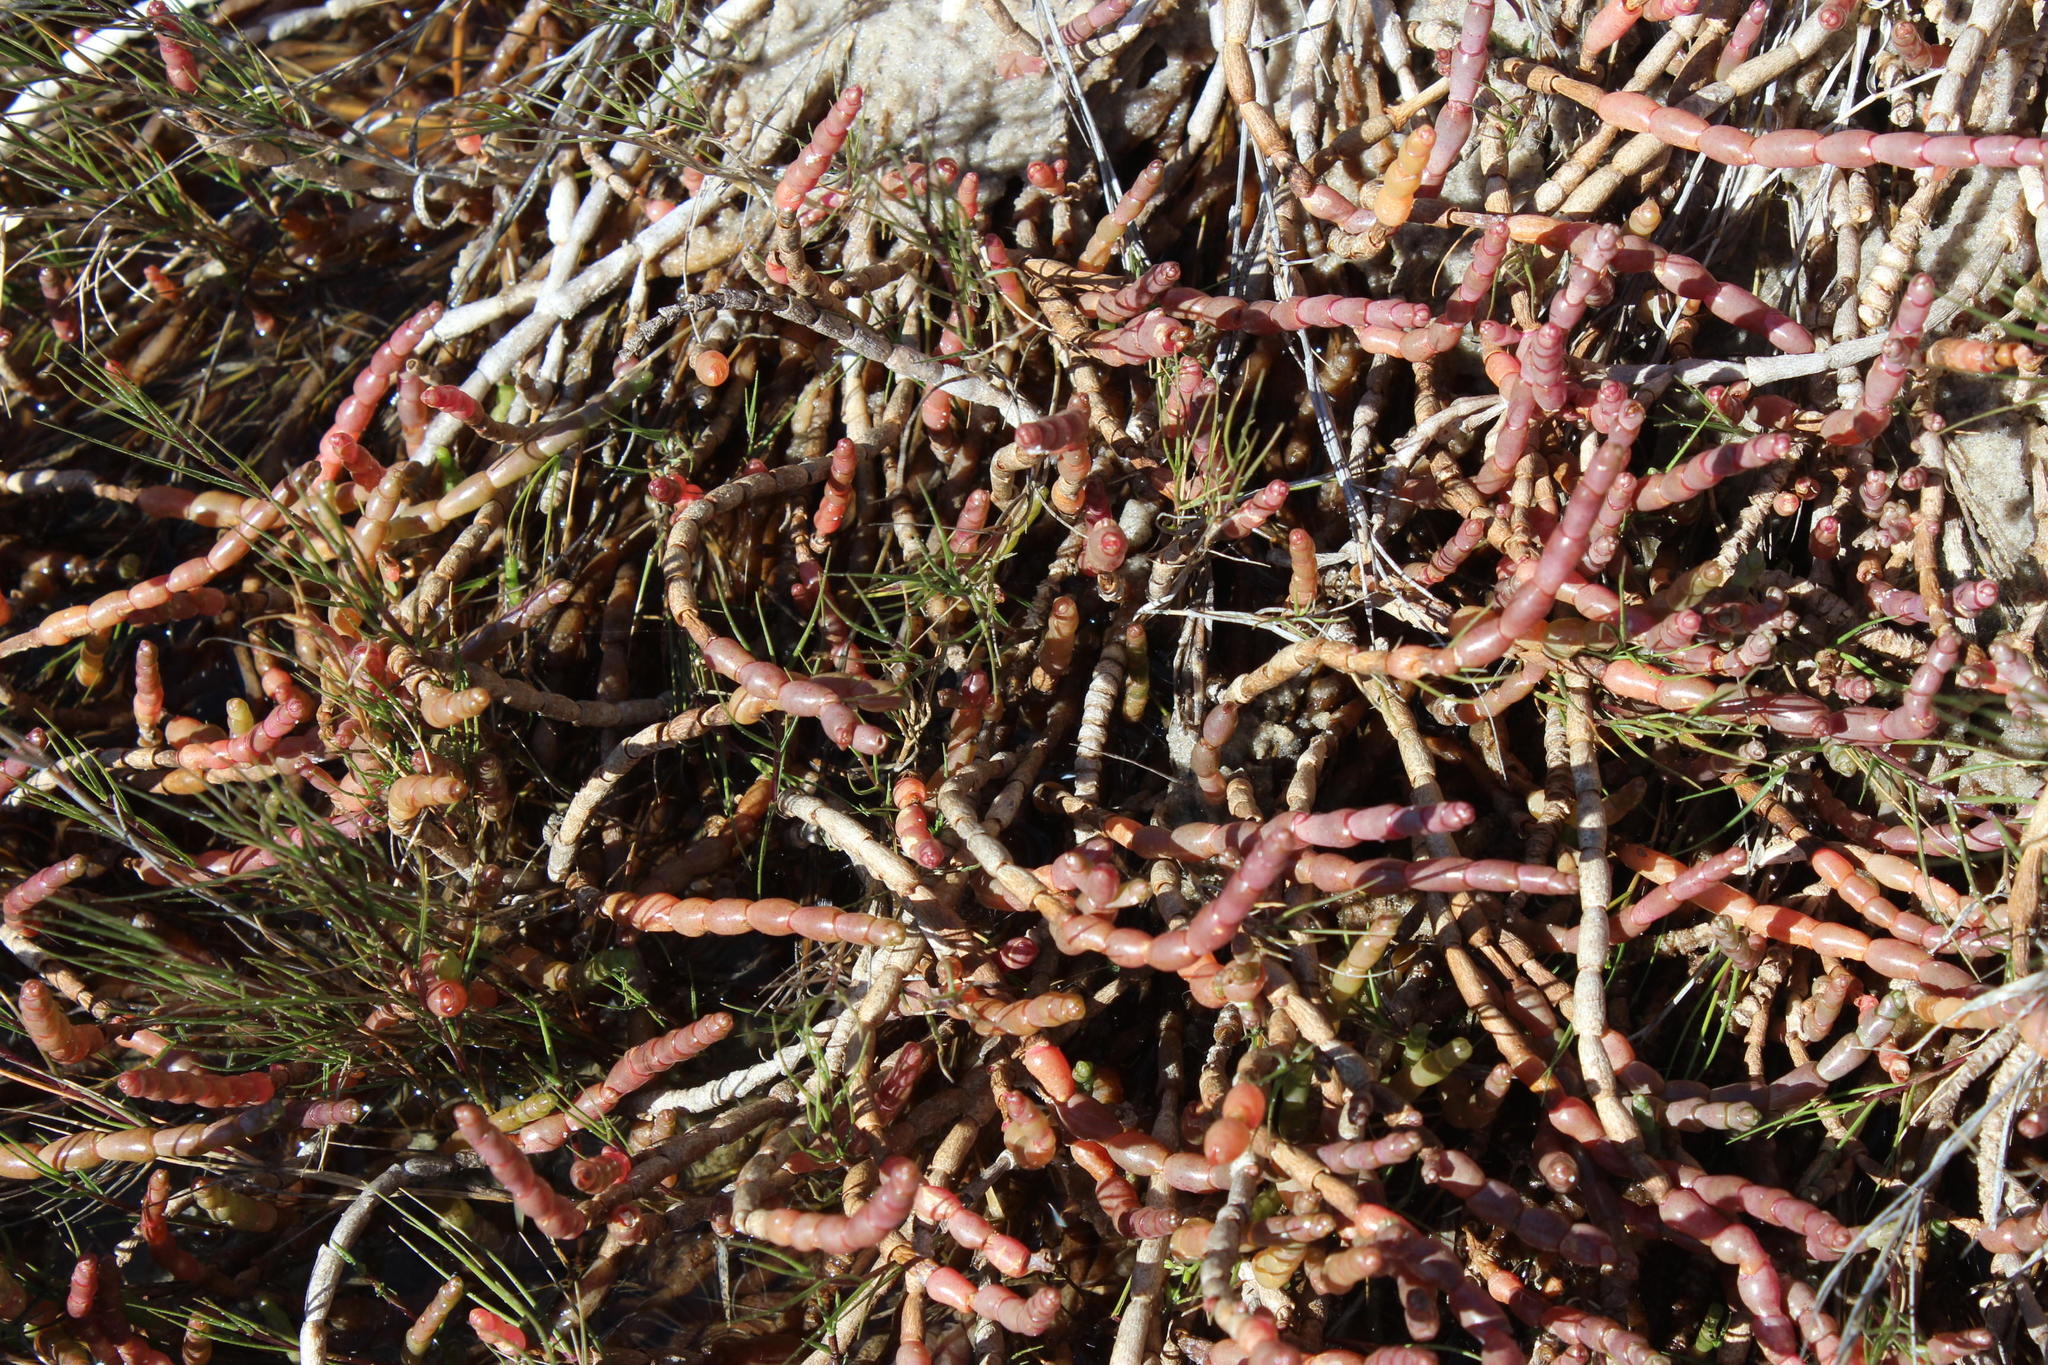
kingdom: Plantae
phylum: Tracheophyta
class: Magnoliopsida
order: Caryophyllales
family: Amaranthaceae
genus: Salicornia
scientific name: Salicornia tegetaria
